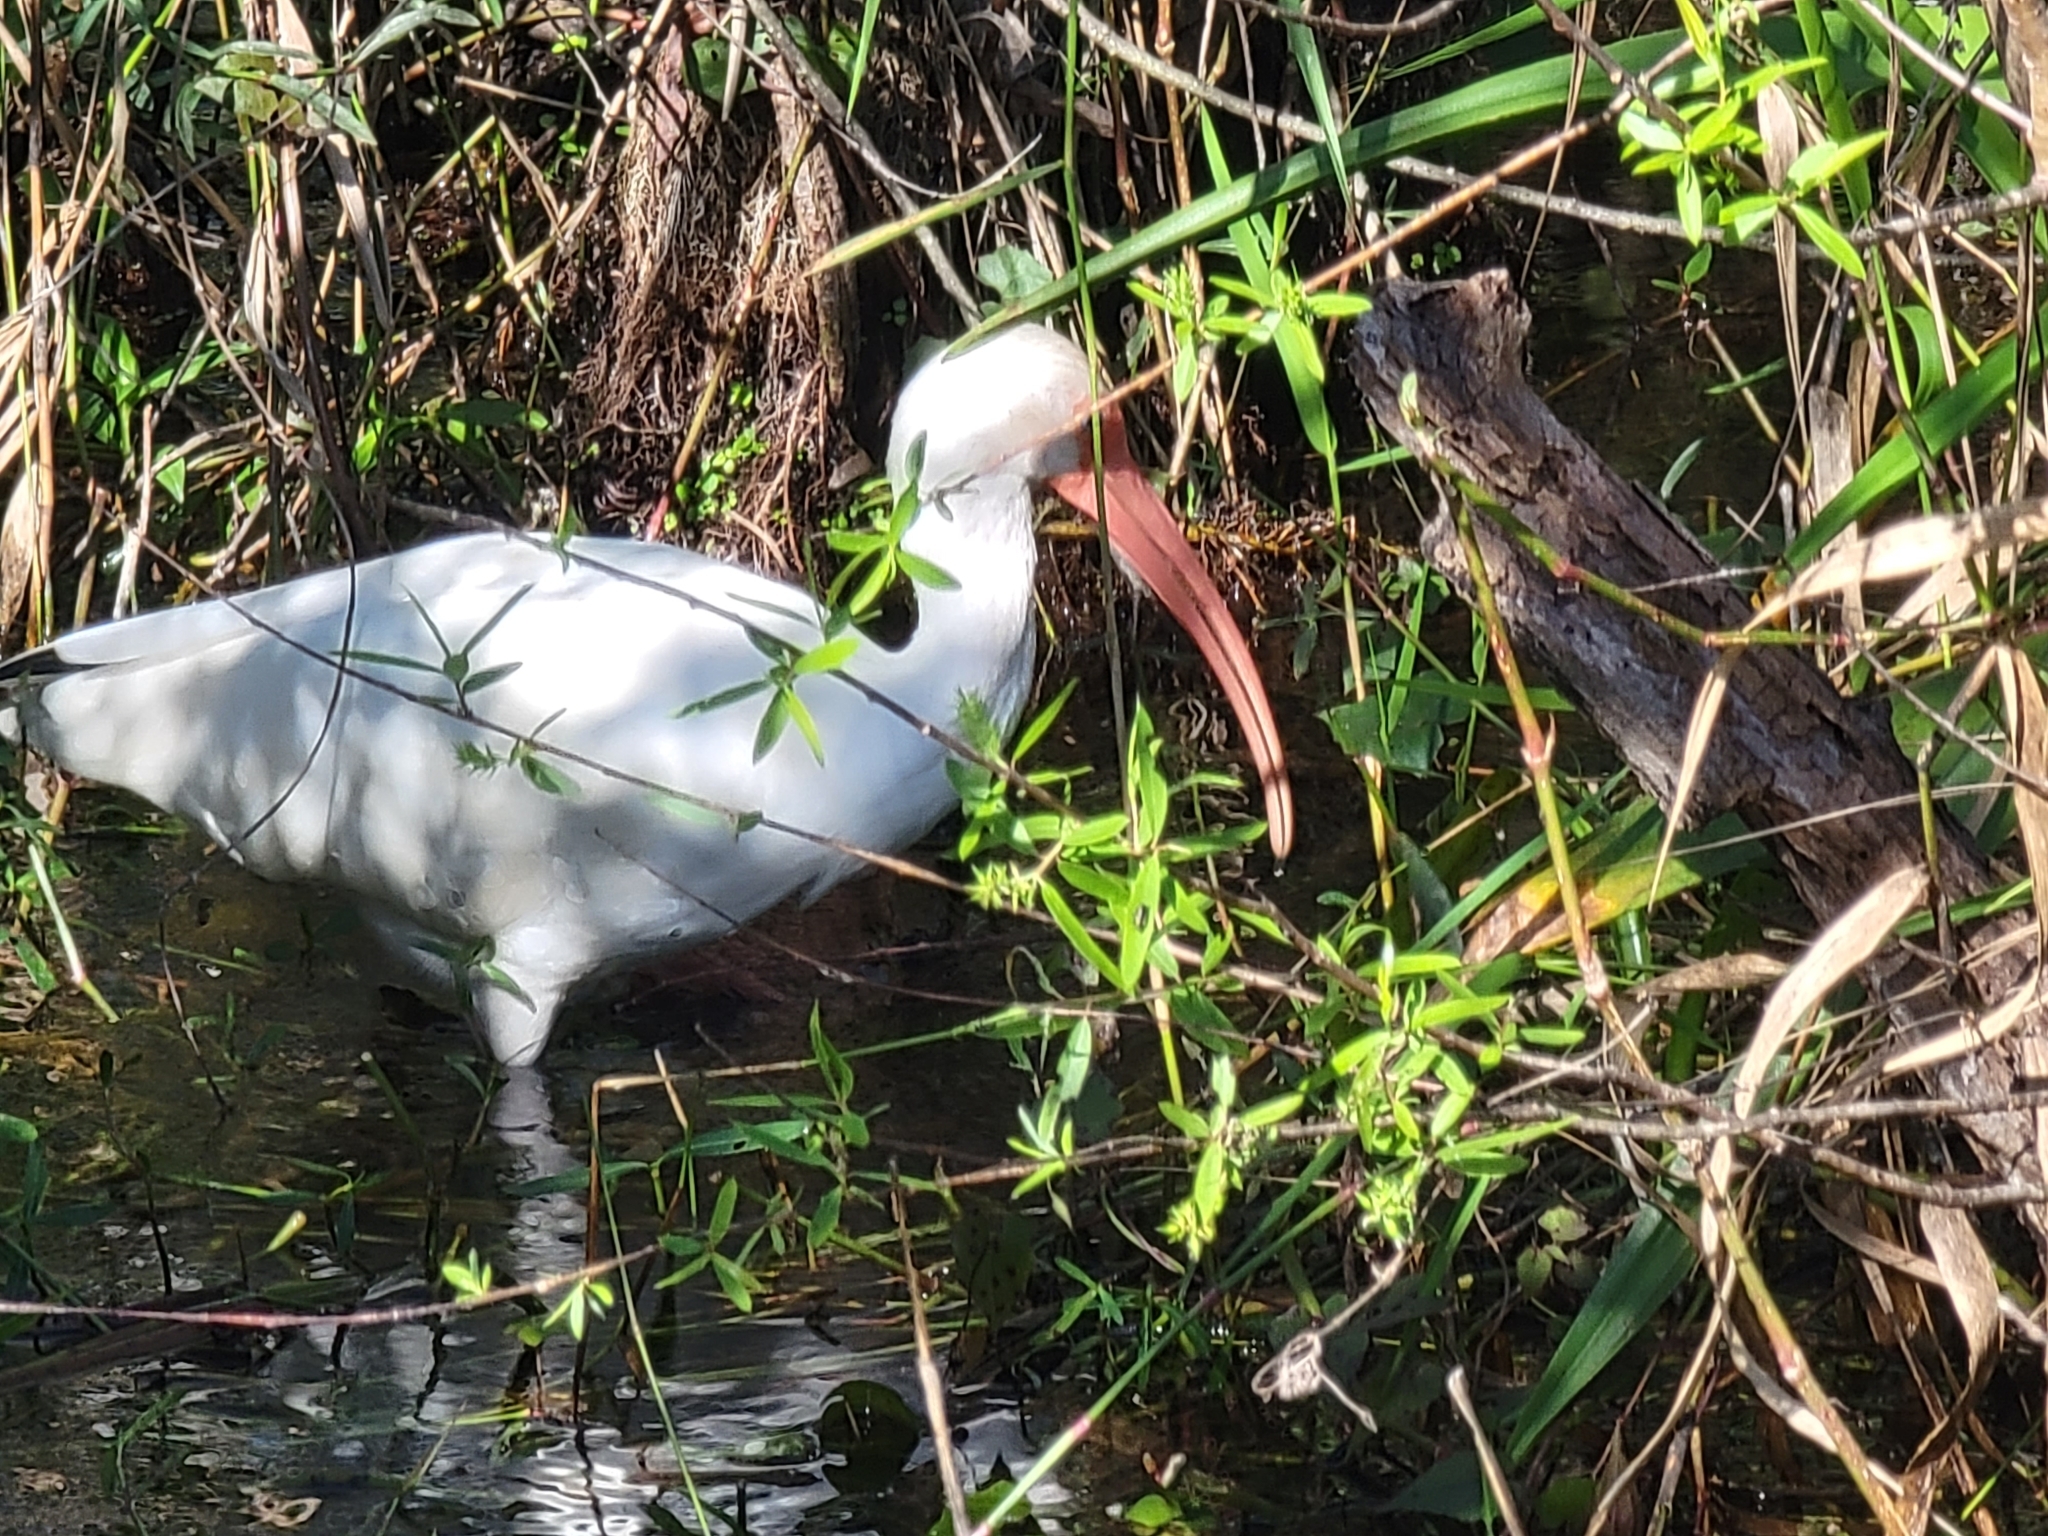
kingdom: Animalia
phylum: Chordata
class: Aves
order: Pelecaniformes
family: Threskiornithidae
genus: Eudocimus
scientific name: Eudocimus albus
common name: White ibis
